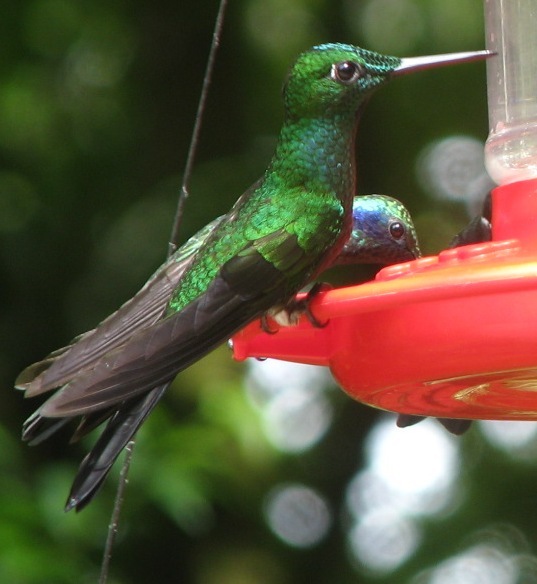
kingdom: Animalia
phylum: Chordata
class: Aves
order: Apodiformes
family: Trochilidae
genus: Heliodoxa
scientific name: Heliodoxa jacula
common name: Green-crowned brilliant
